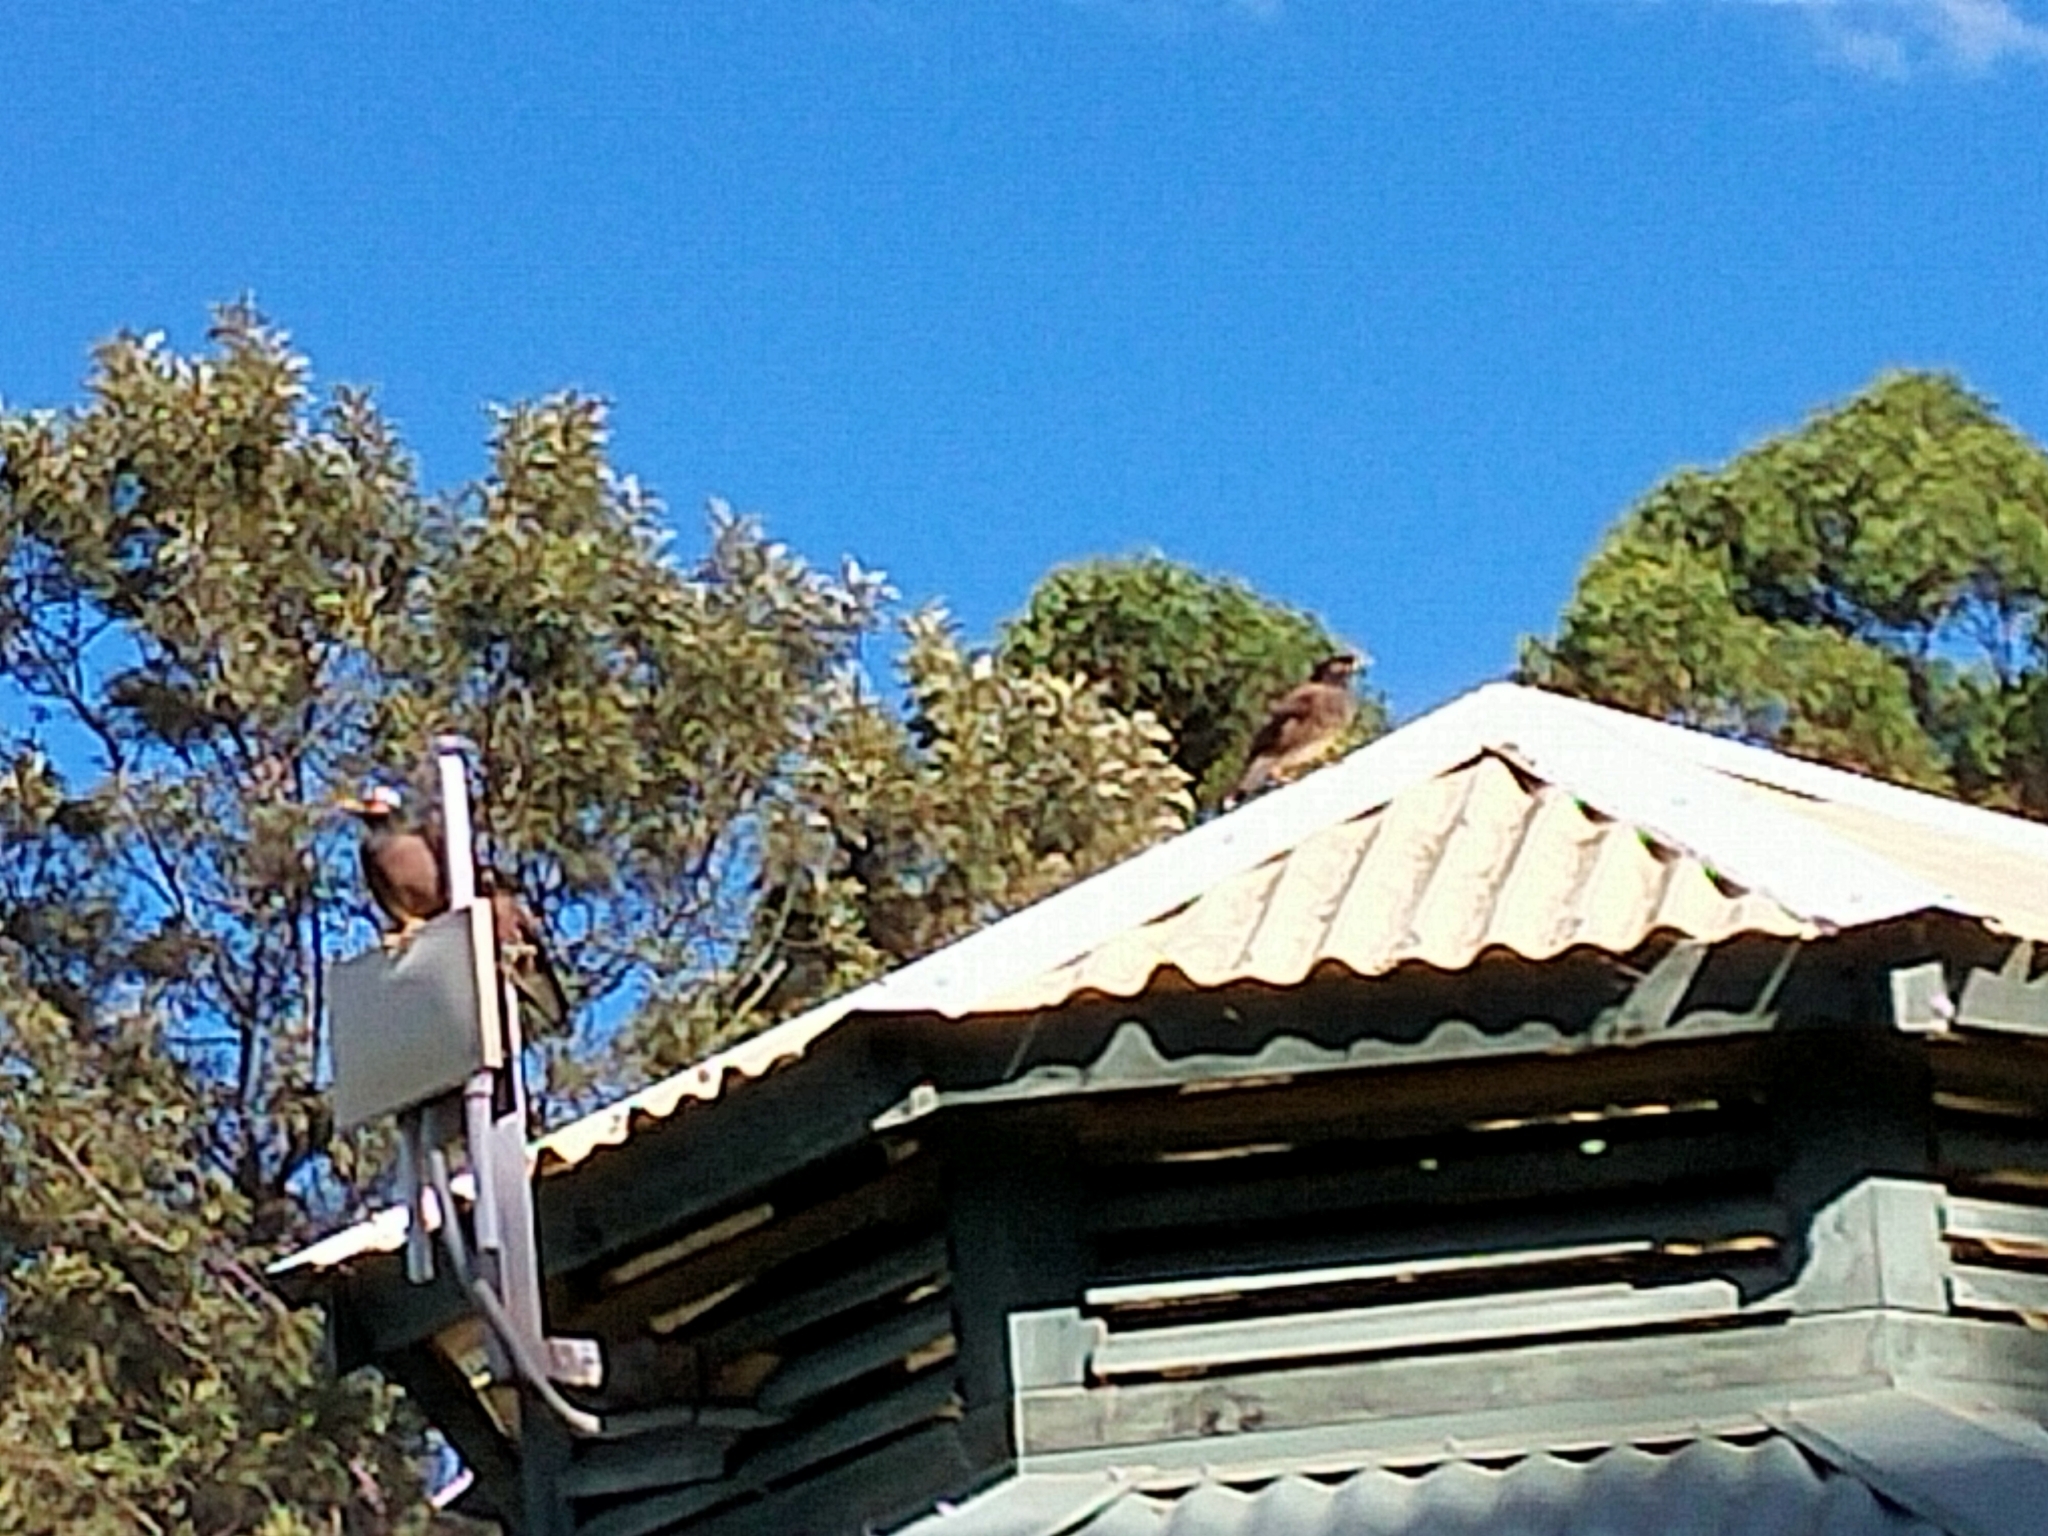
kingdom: Animalia
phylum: Chordata
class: Aves
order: Passeriformes
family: Sturnidae
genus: Acridotheres
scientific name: Acridotheres tristis
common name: Common myna
